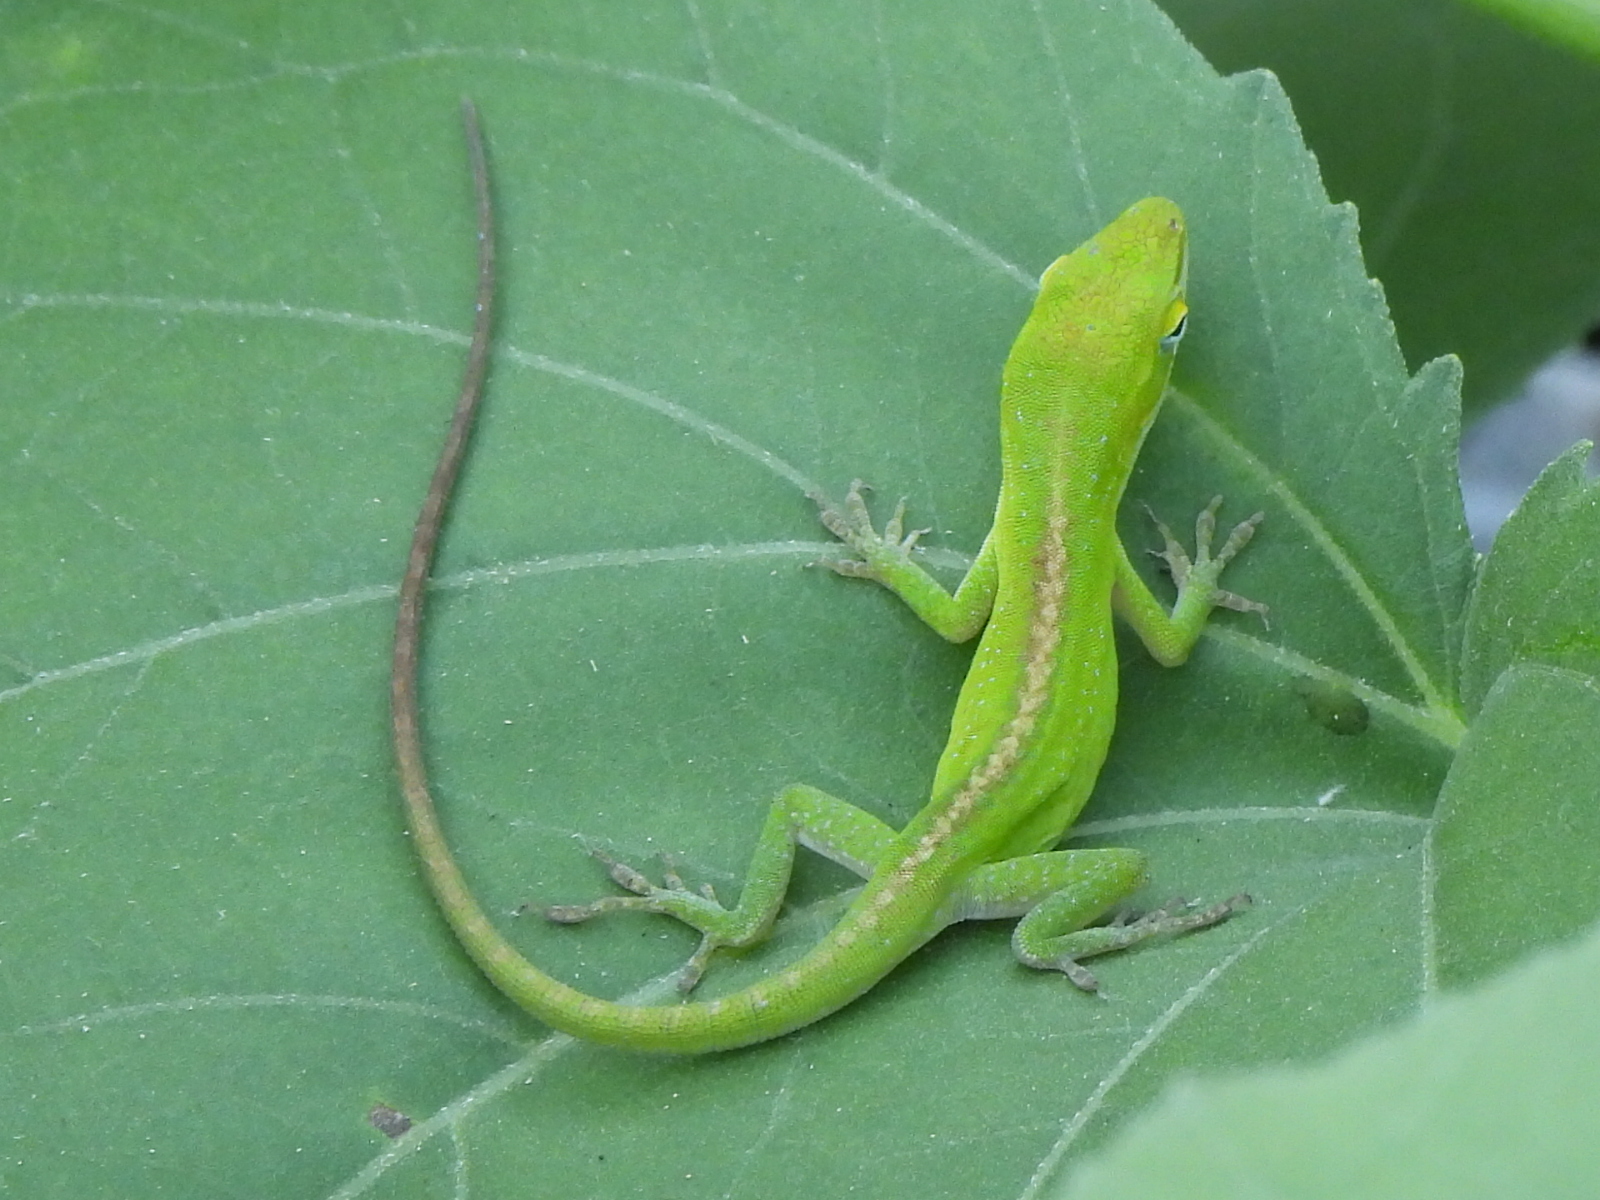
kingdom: Animalia
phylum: Chordata
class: Squamata
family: Dactyloidae
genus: Anolis
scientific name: Anolis carolinensis
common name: Green anole
